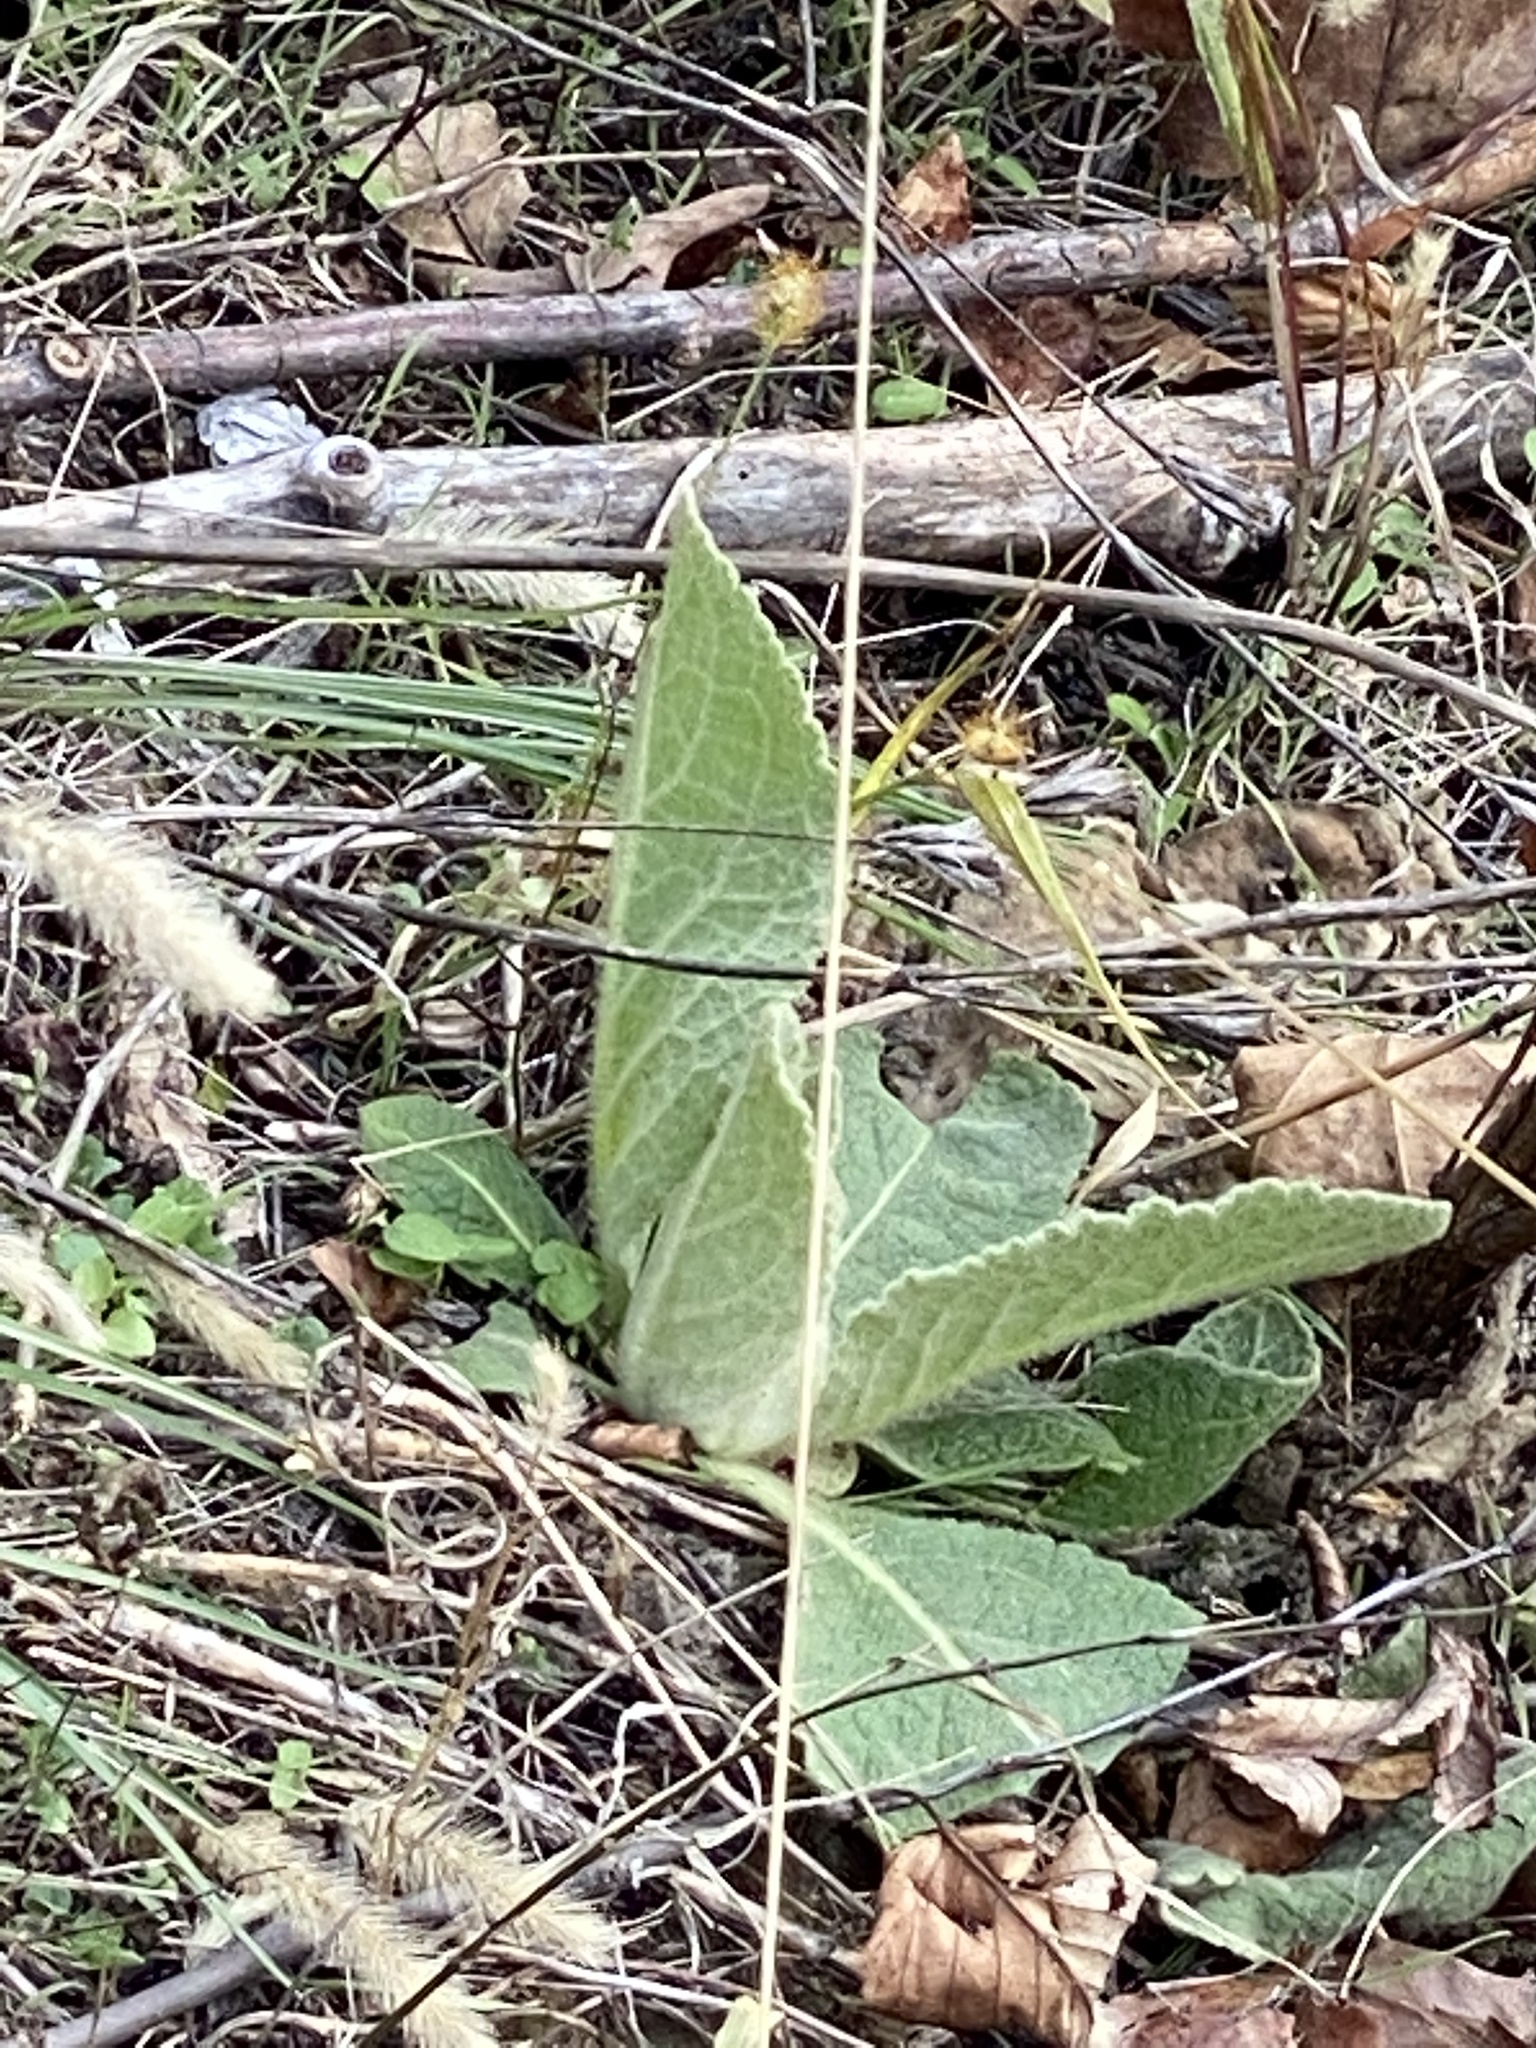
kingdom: Plantae
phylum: Tracheophyta
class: Magnoliopsida
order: Lamiales
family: Scrophulariaceae
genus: Verbascum
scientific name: Verbascum thapsus
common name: Common mullein
